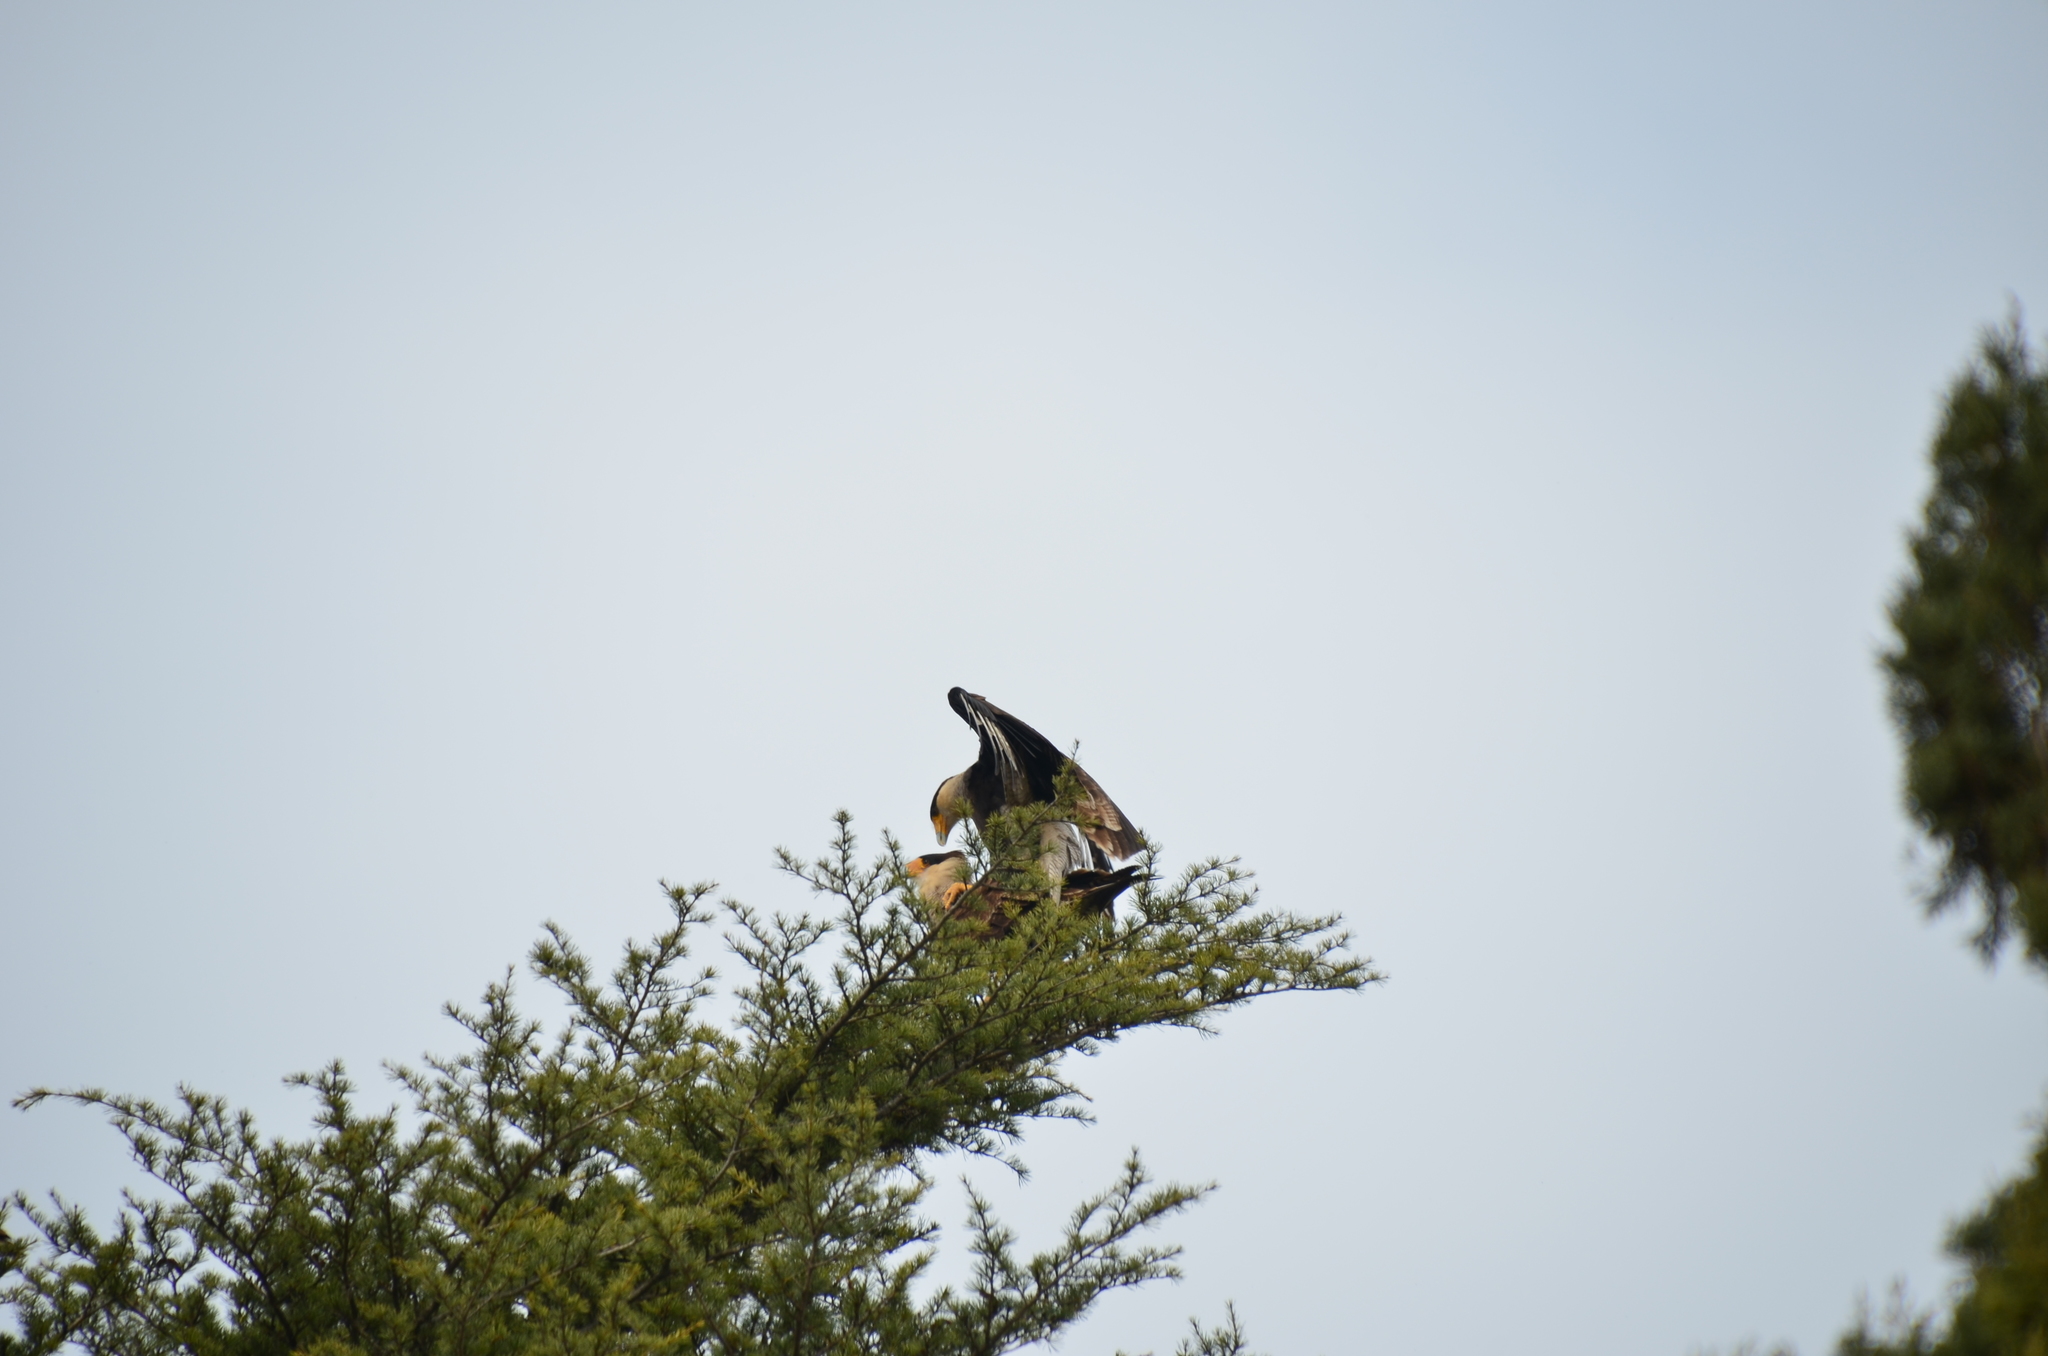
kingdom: Animalia
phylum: Chordata
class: Aves
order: Falconiformes
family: Falconidae
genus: Caracara
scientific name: Caracara plancus
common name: Southern caracara
